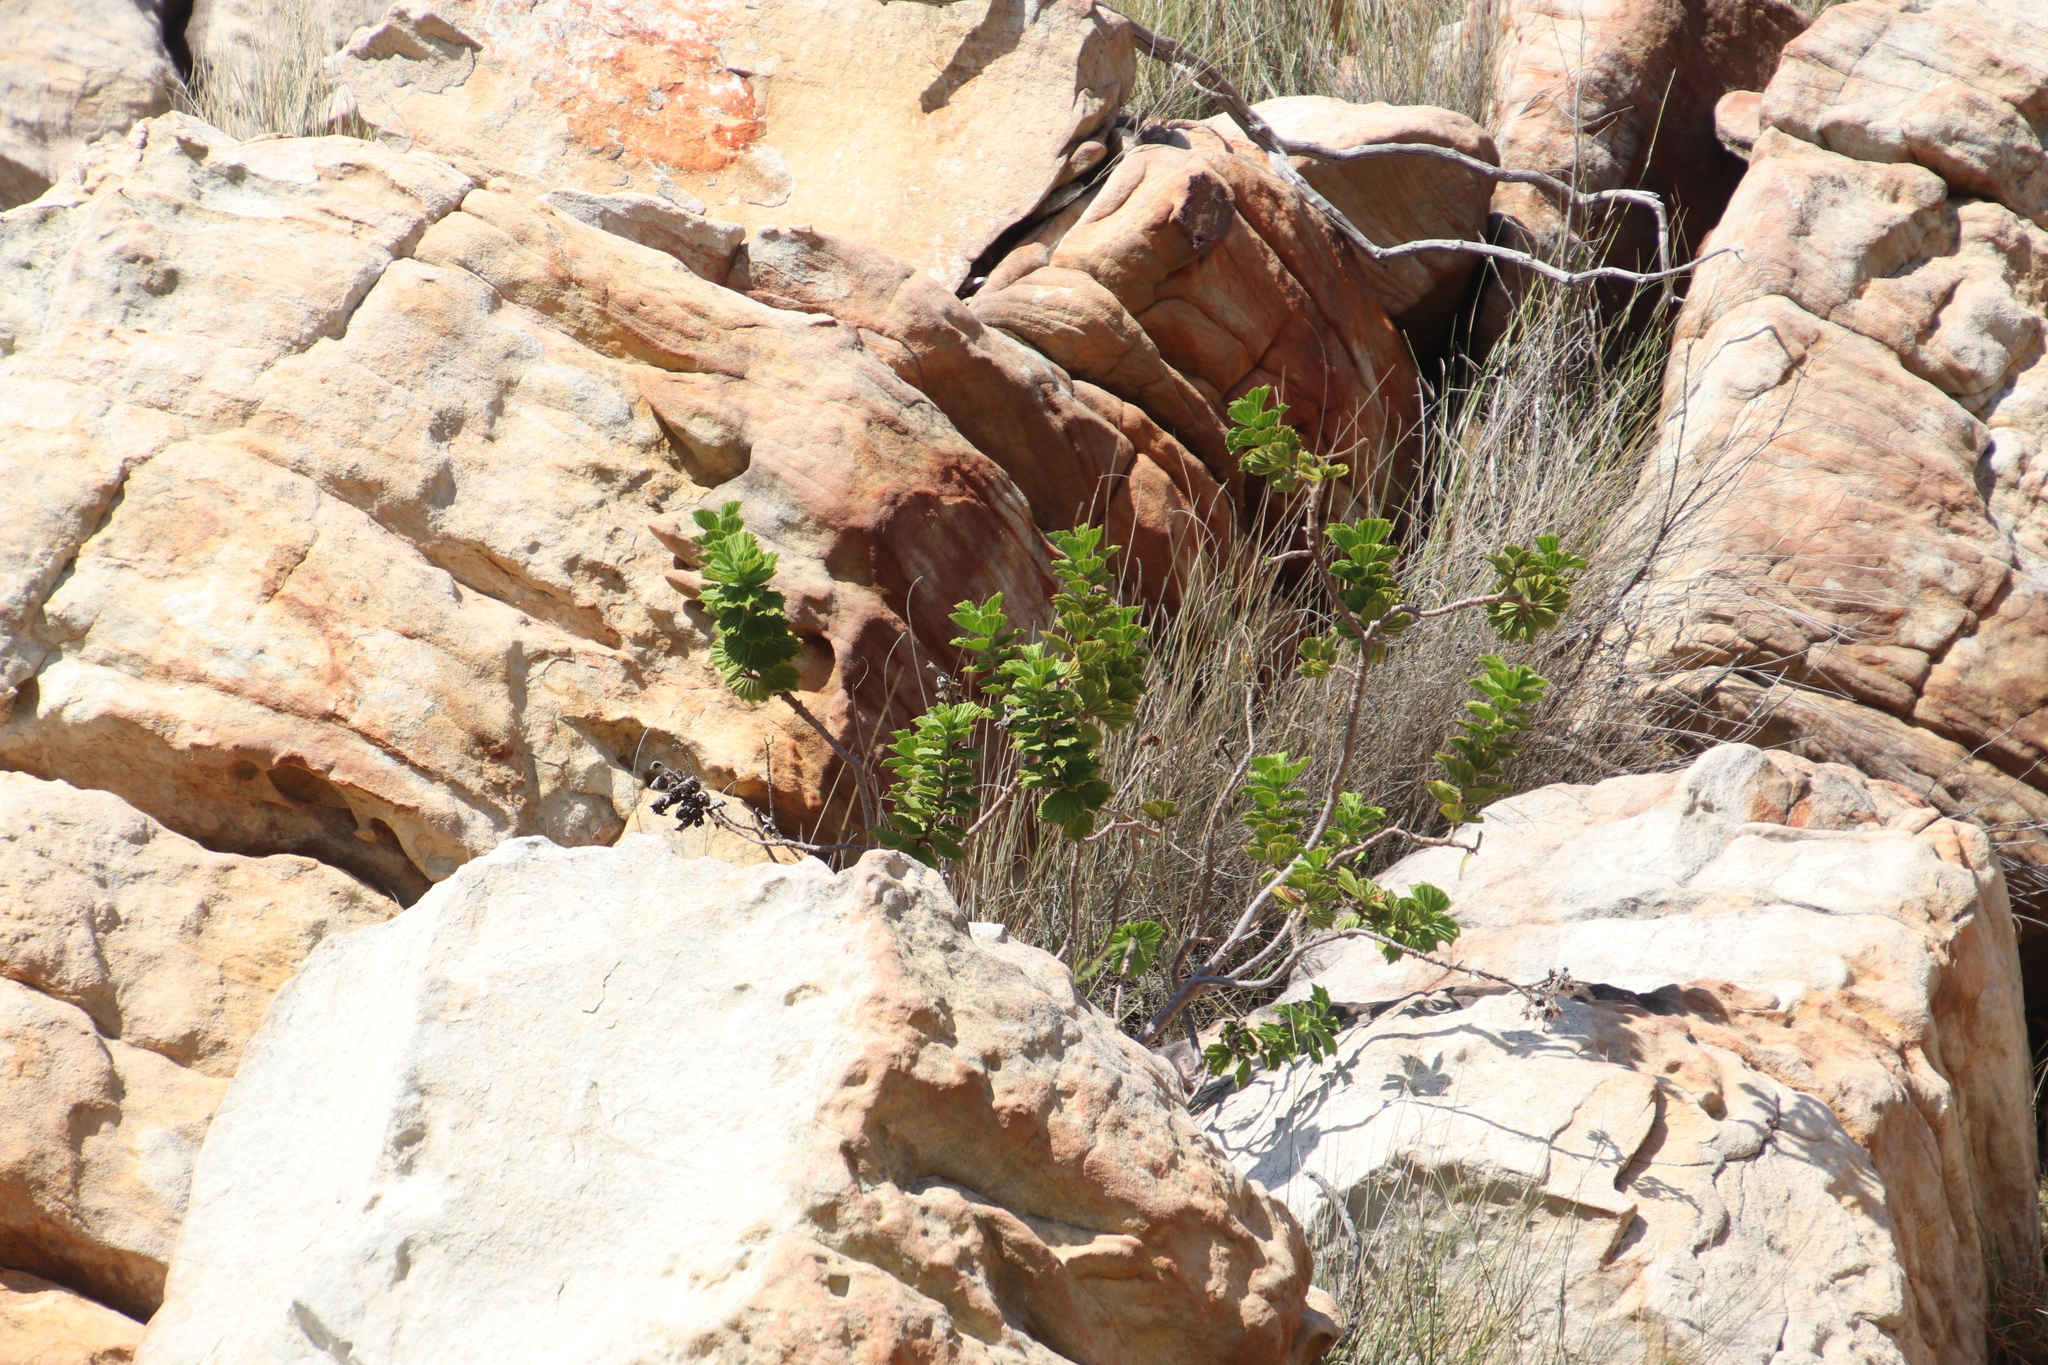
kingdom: Plantae
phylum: Tracheophyta
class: Magnoliopsida
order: Geraniales
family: Geraniaceae
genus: Pelargonium
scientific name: Pelargonium cucullatum
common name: Tree pelargonium
